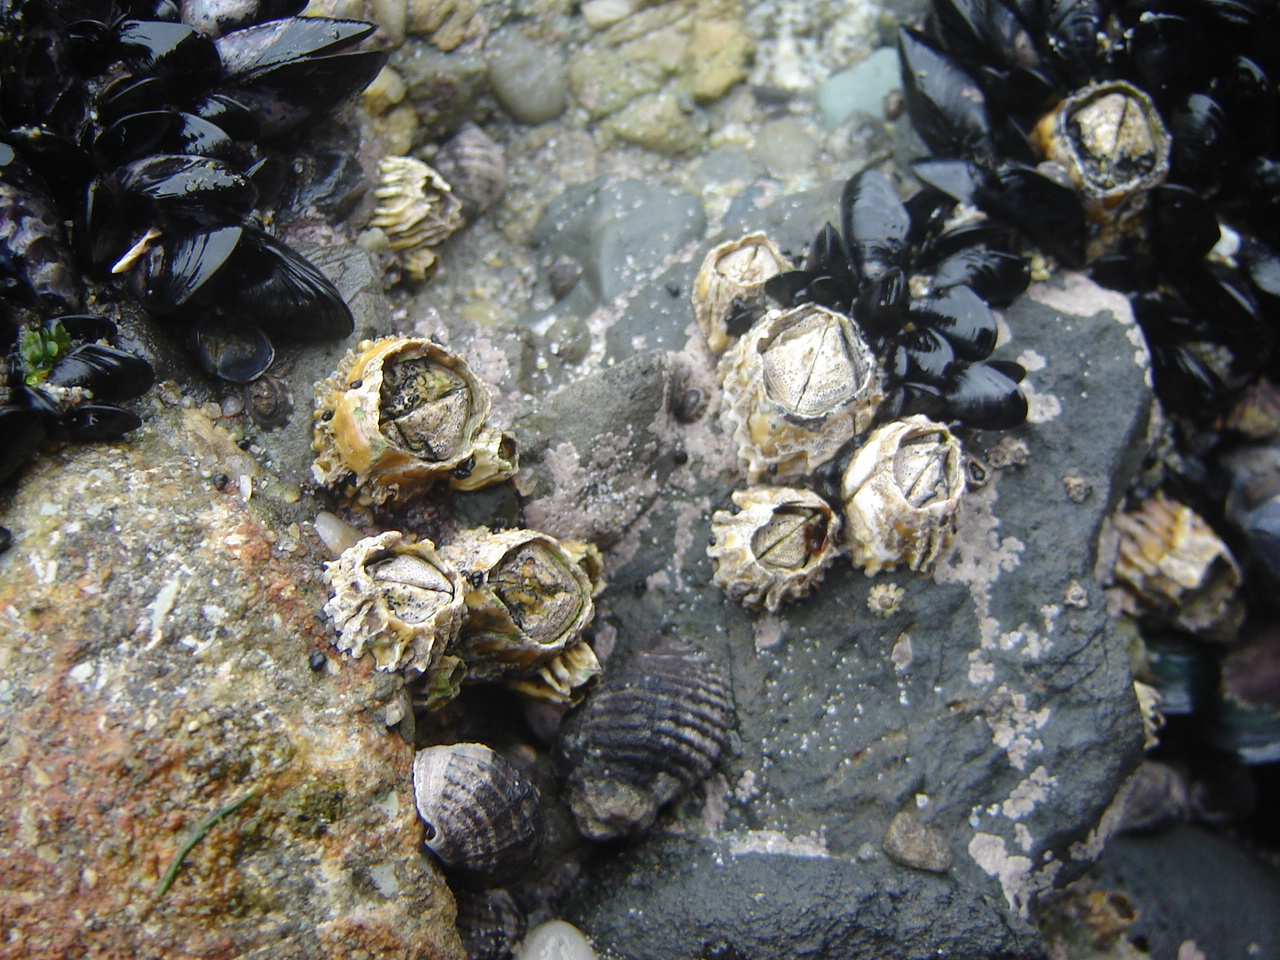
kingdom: Animalia
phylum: Arthropoda
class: Maxillopoda
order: Sessilia
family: Tetraclitidae
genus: Epopella
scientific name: Epopella plicata
